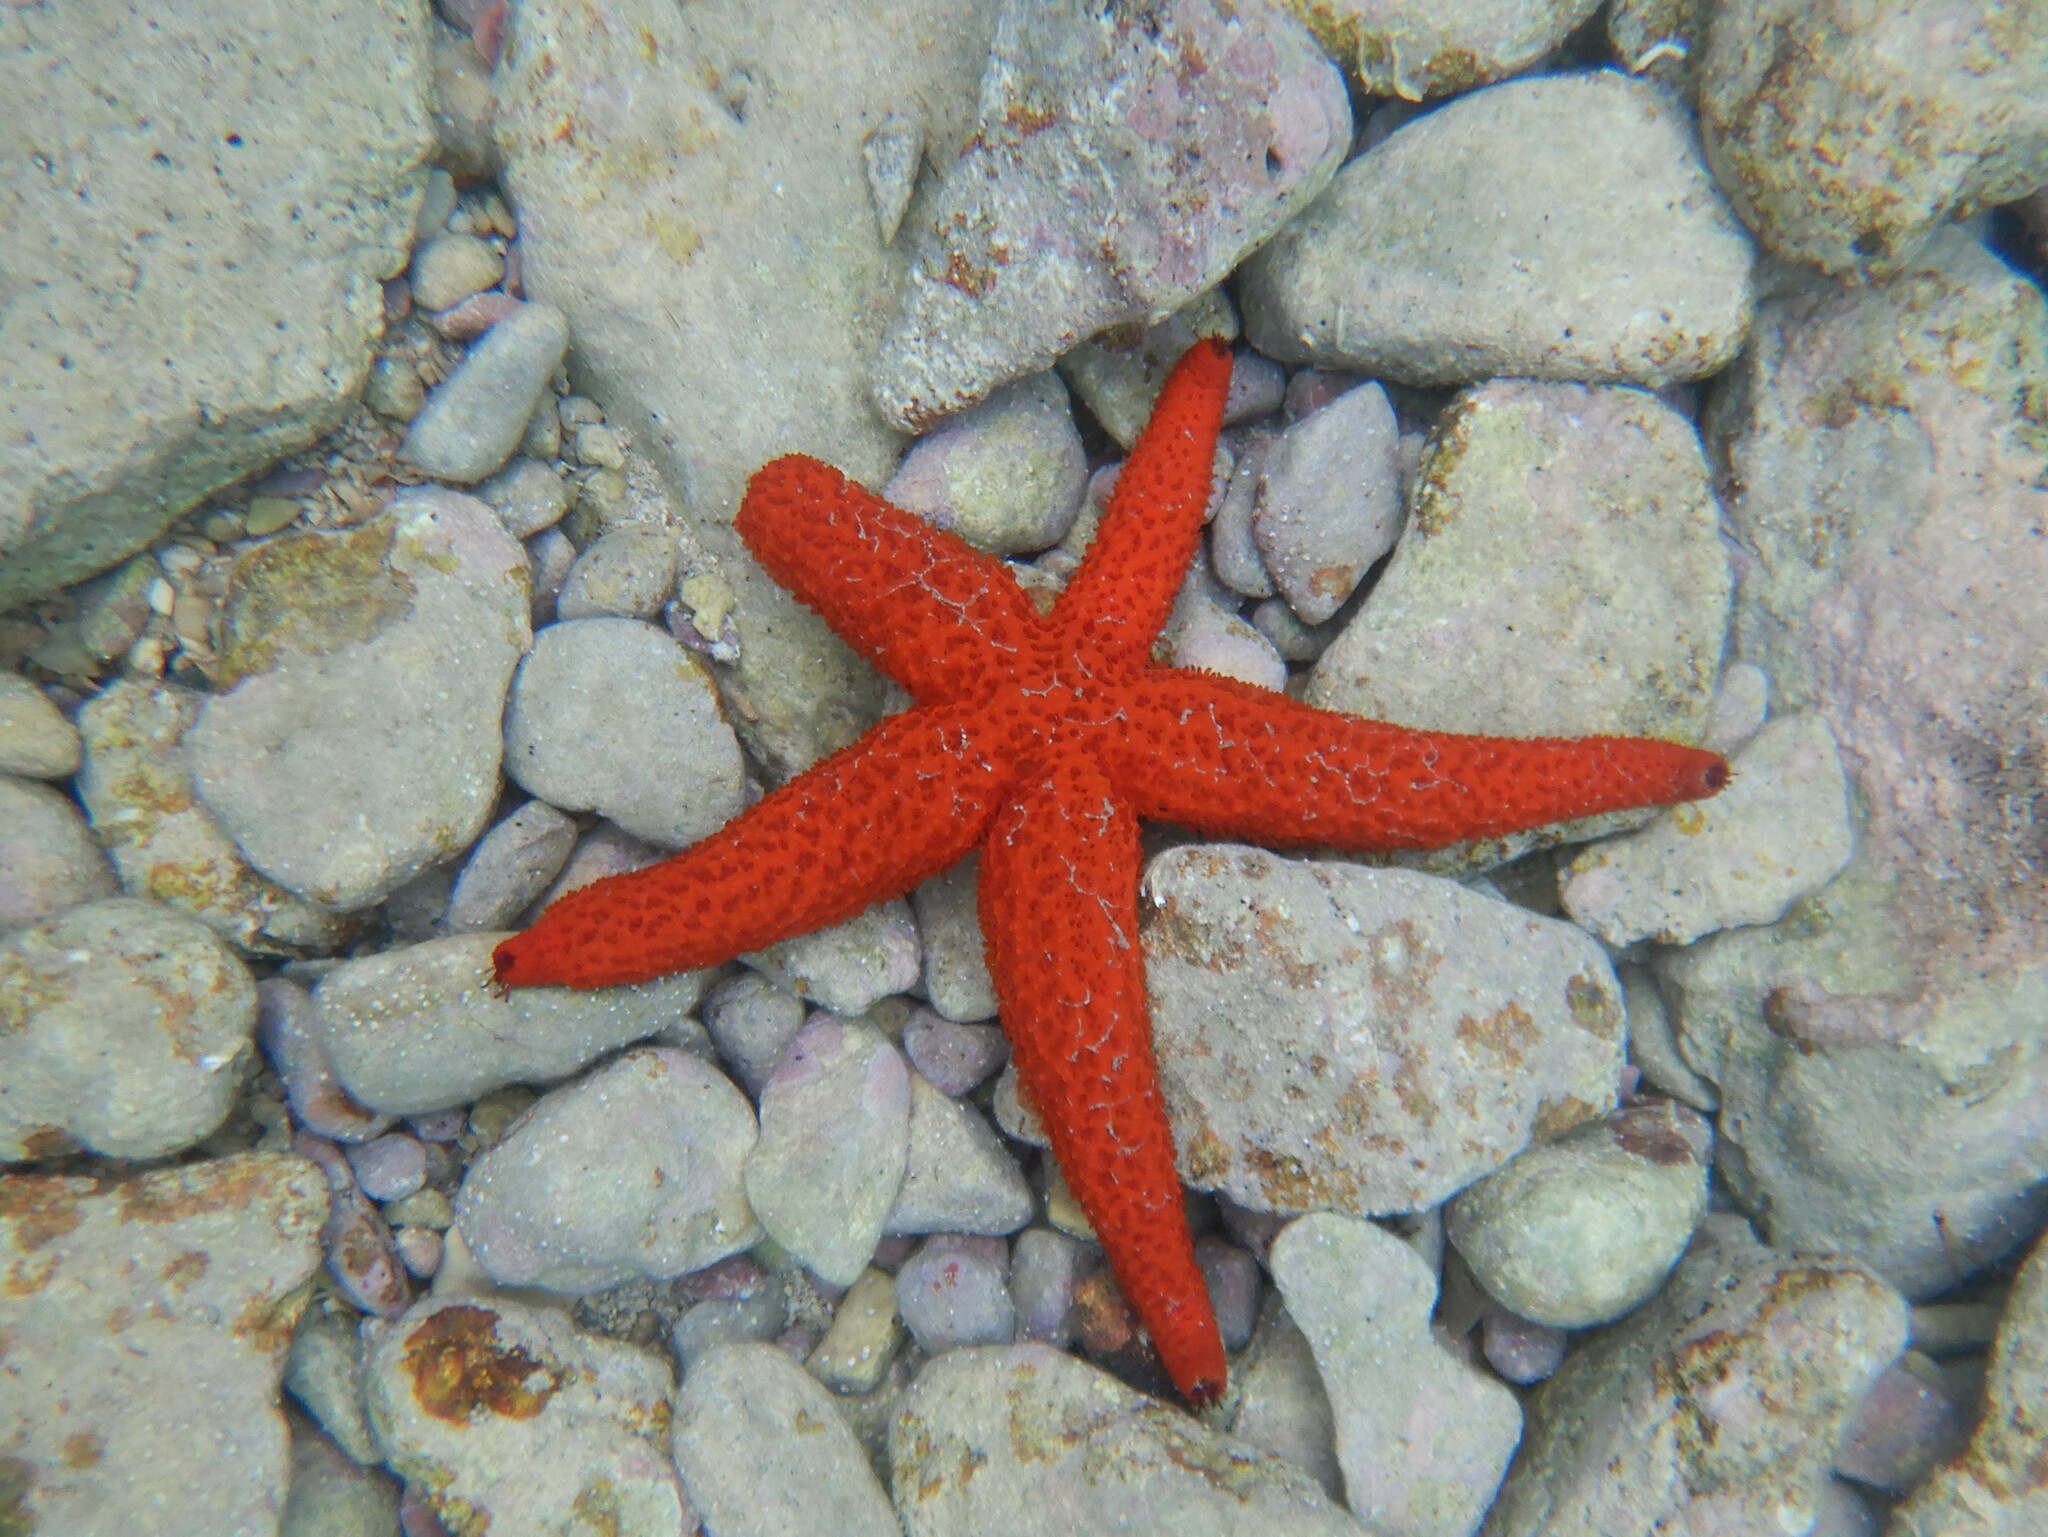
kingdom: Animalia
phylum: Echinodermata
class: Asteroidea
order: Spinulosida
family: Echinasteridae
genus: Echinaster
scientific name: Echinaster sepositus
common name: Red starfish
